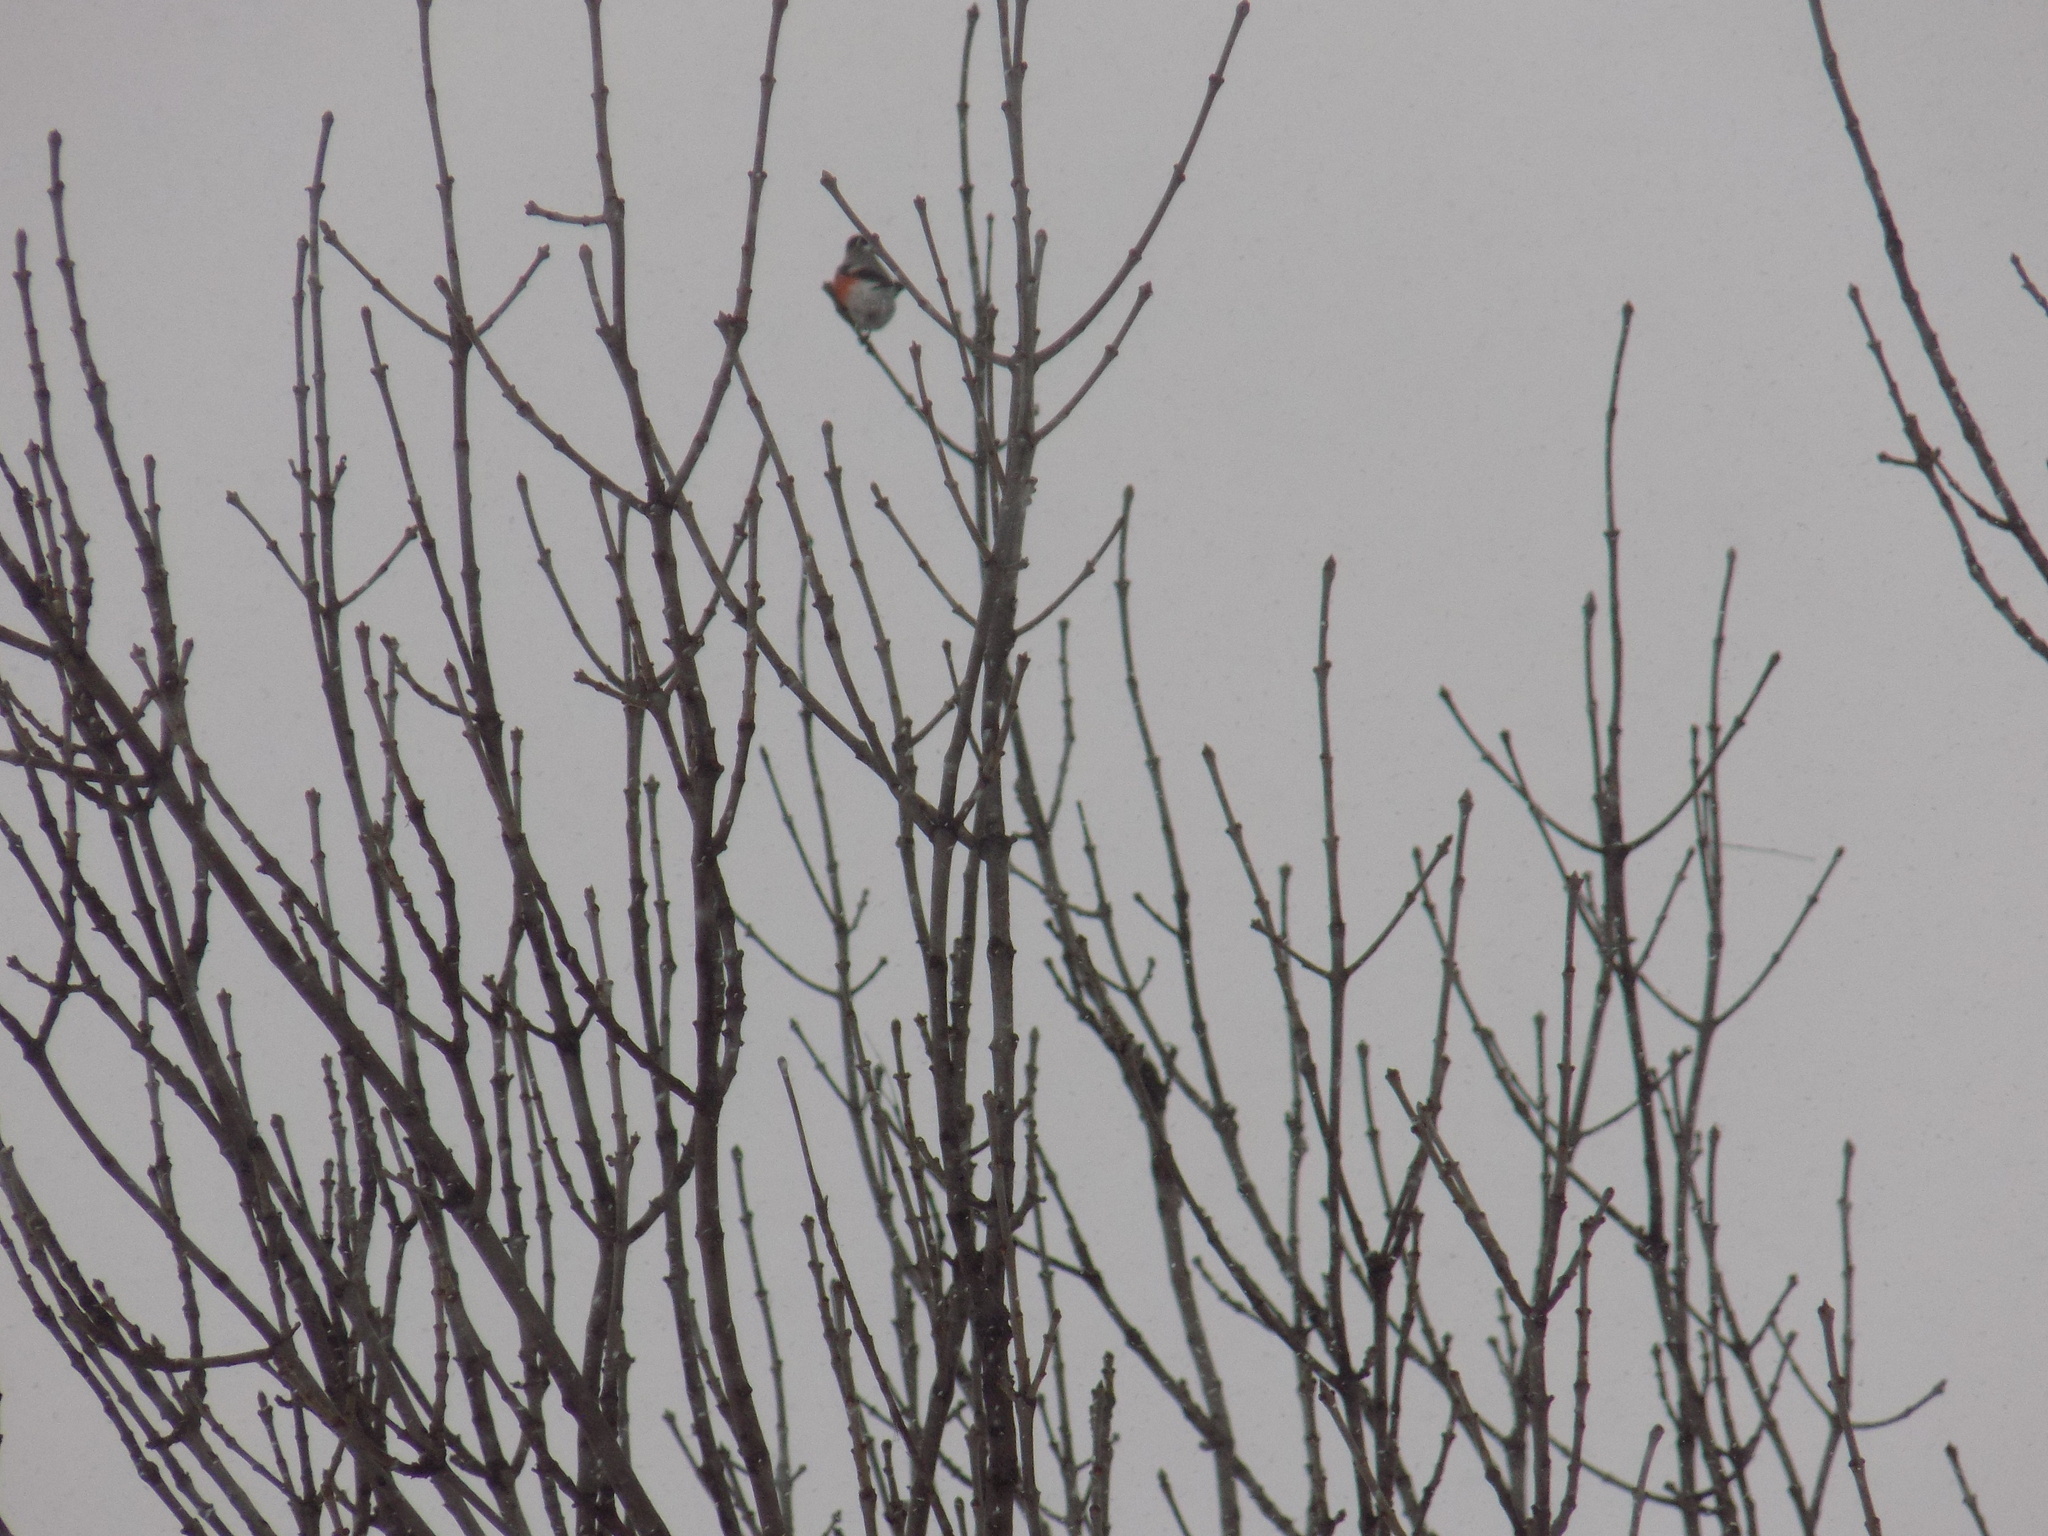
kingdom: Animalia
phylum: Chordata
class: Aves
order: Passeriformes
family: Fringillidae
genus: Pyrrhula
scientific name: Pyrrhula pyrrhula
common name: Eurasian bullfinch
